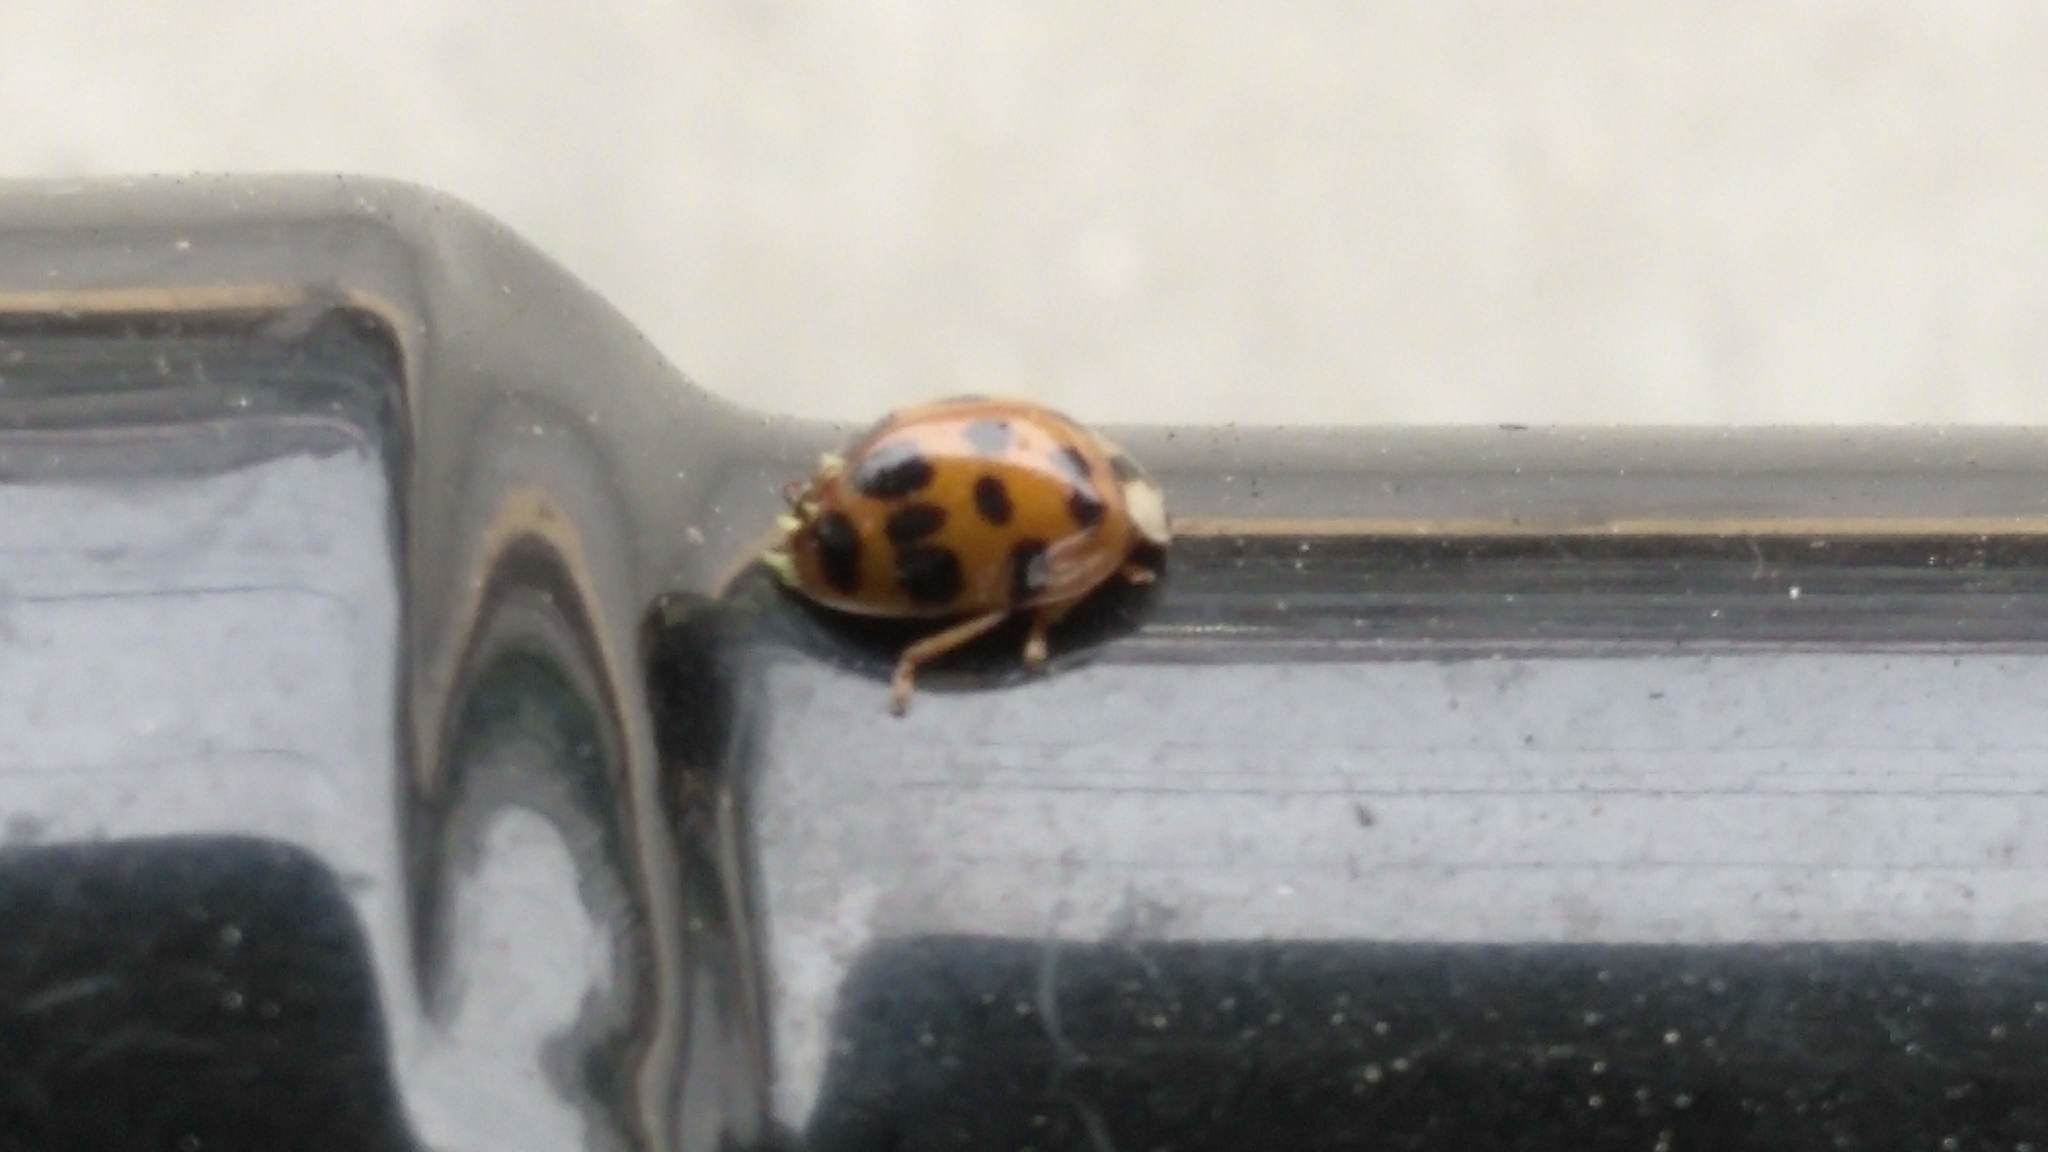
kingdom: Fungi
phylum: Ascomycota
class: Laboulbeniomycetes
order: Laboulbeniales
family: Laboulbeniaceae
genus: Hesperomyces
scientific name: Hesperomyces harmoniae
